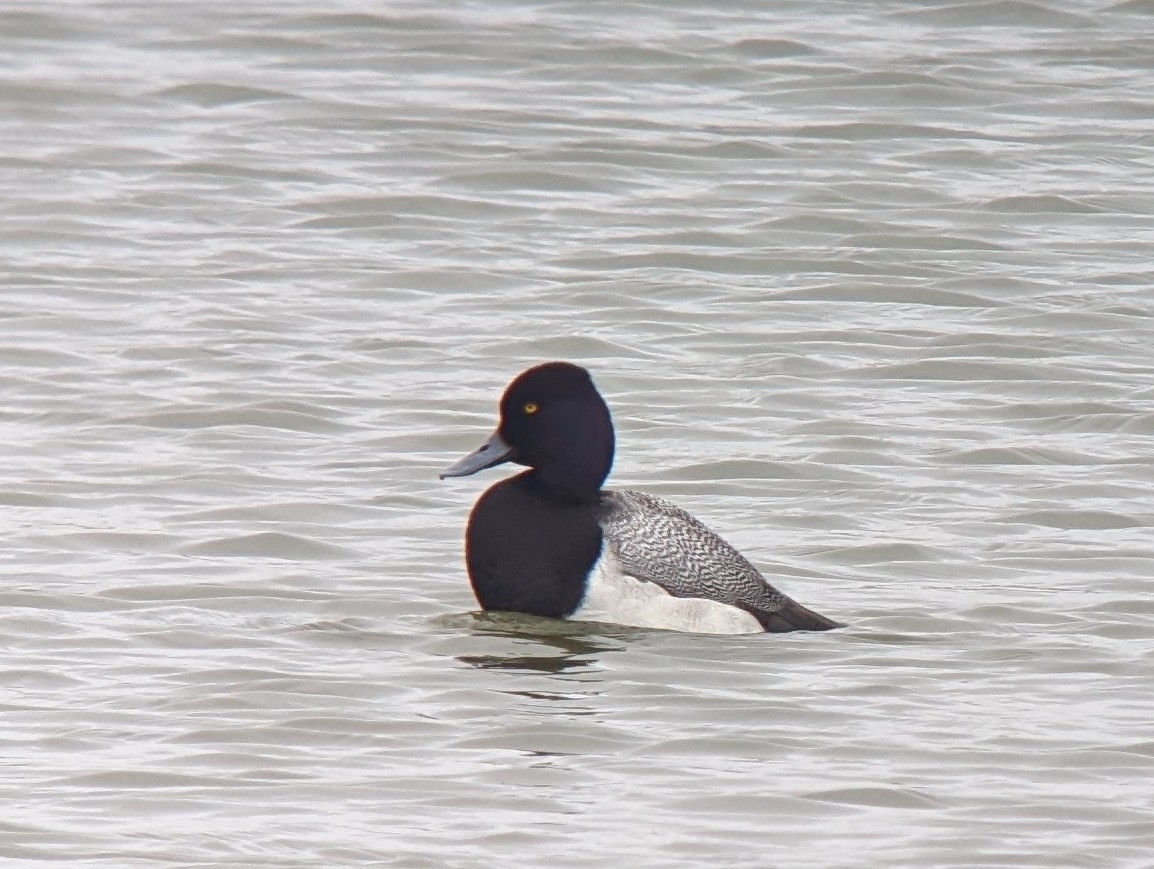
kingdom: Animalia
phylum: Chordata
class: Aves
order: Anseriformes
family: Anatidae
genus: Aythya
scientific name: Aythya affinis
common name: Lesser scaup
